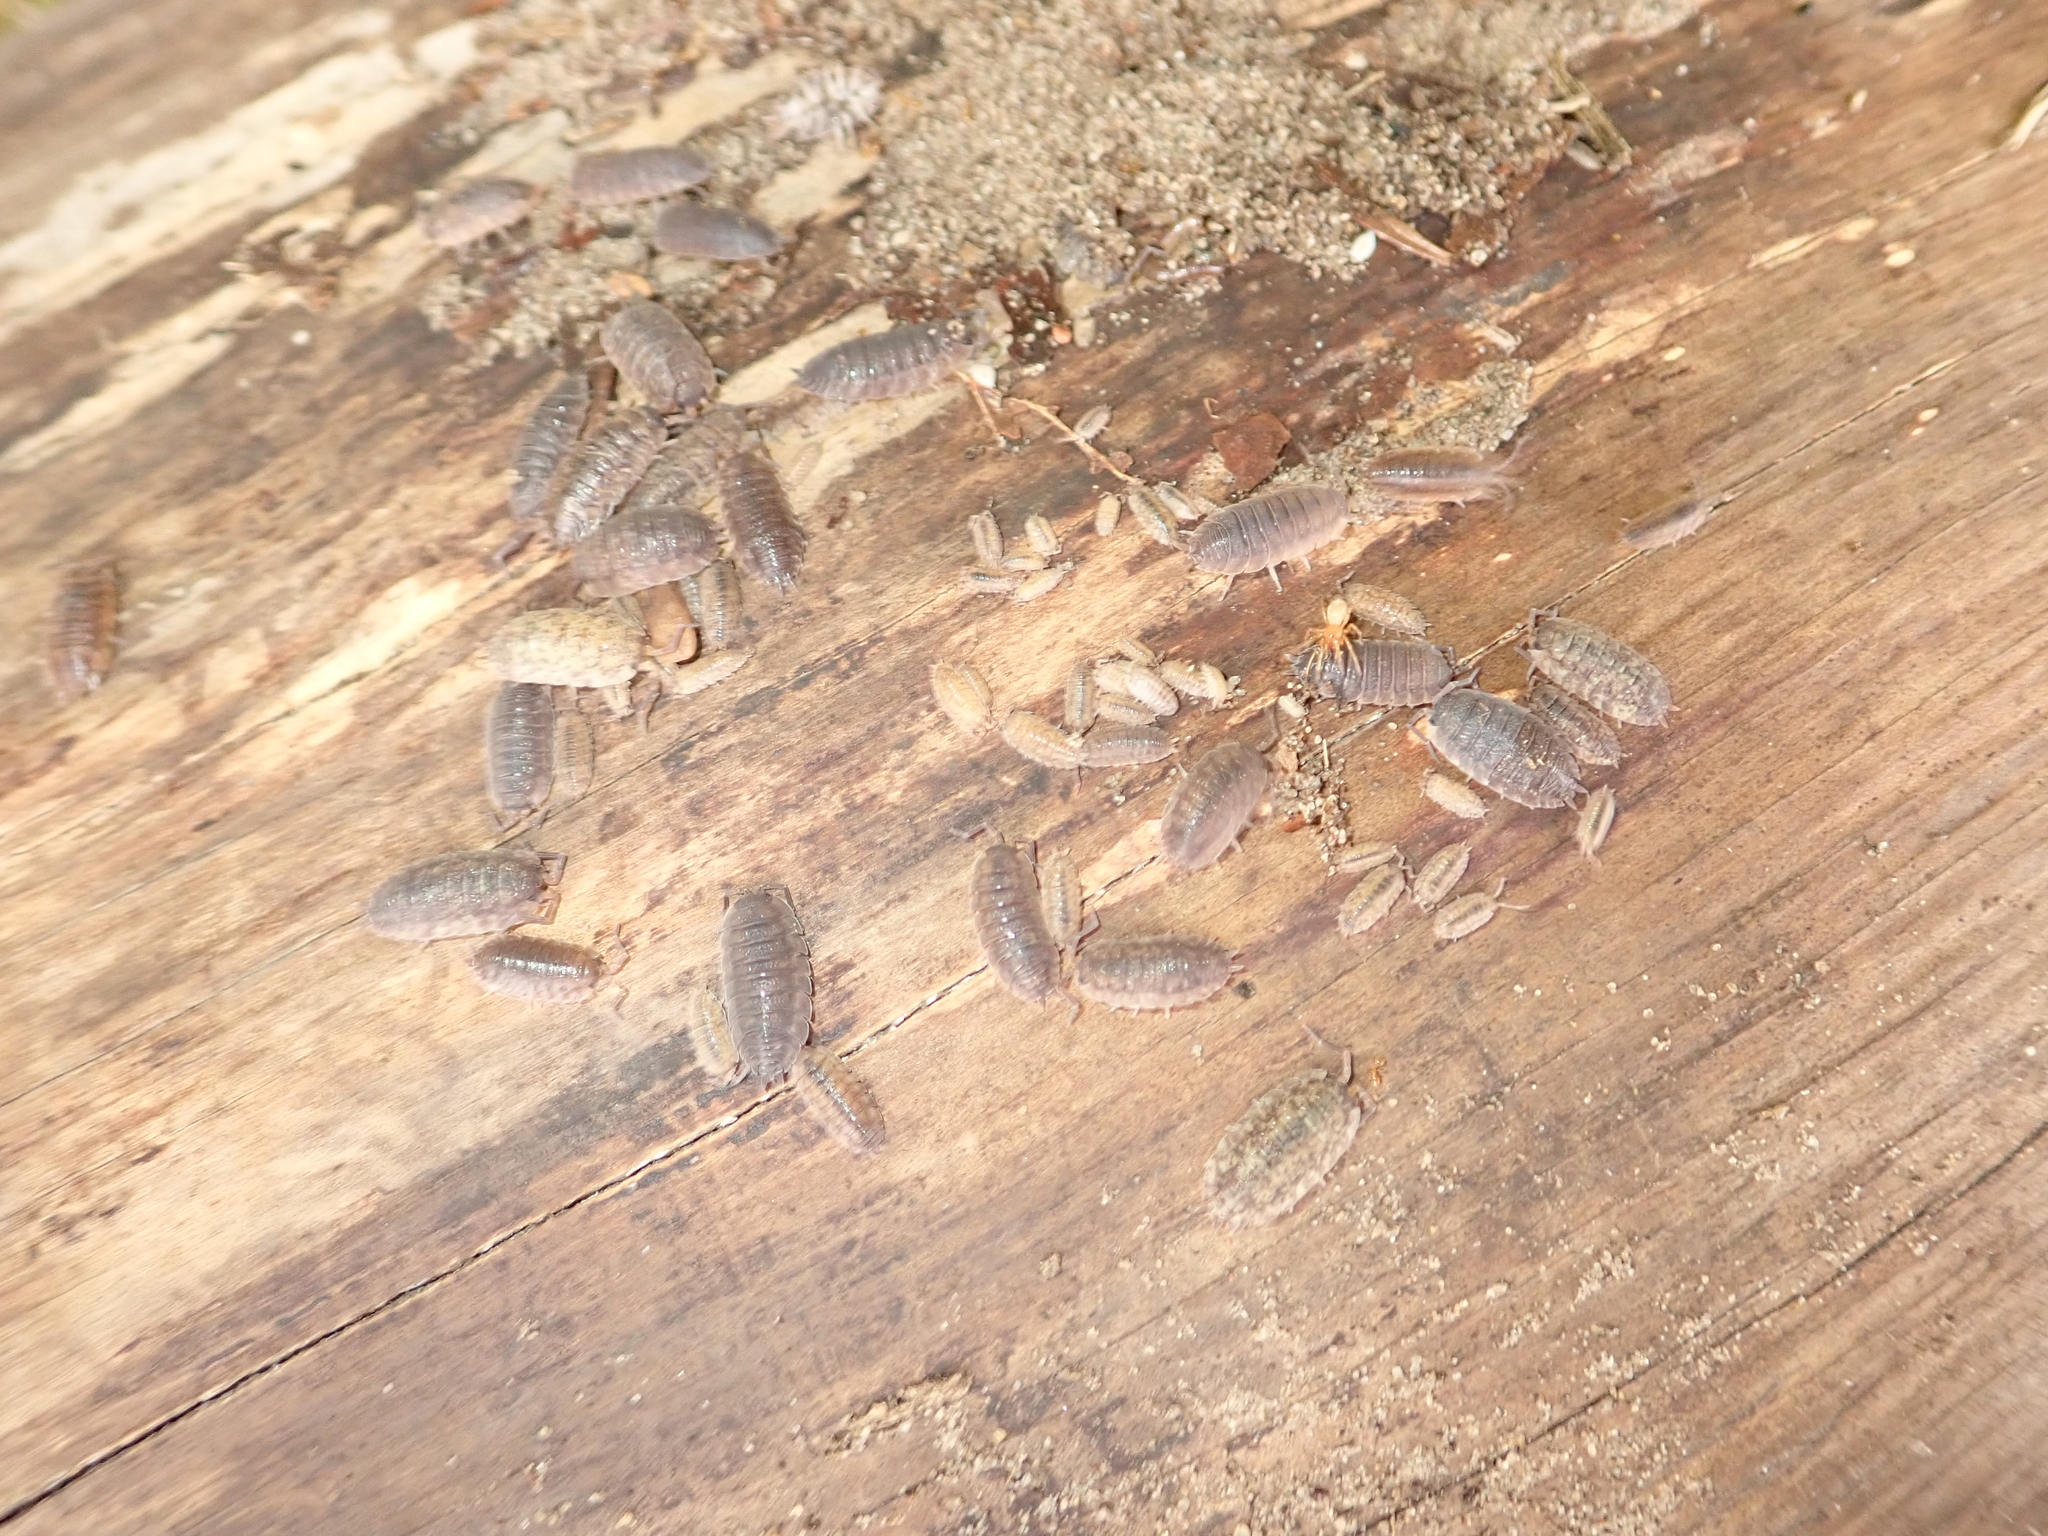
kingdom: Animalia
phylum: Arthropoda
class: Malacostraca
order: Isopoda
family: Porcellionidae
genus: Porcellio
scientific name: Porcellio scaber
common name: Common rough woodlouse
